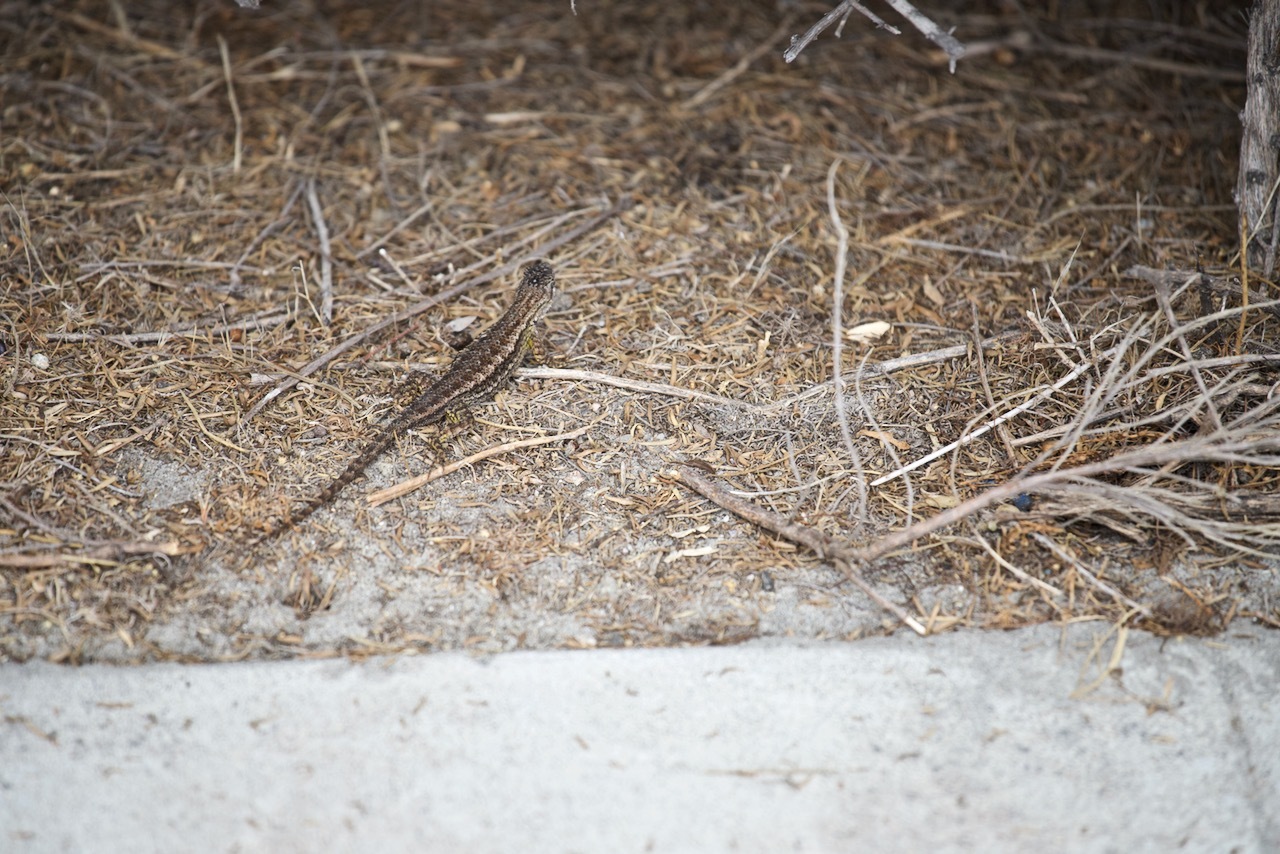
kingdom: Animalia
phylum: Chordata
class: Squamata
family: Phrynosomatidae
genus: Sceloporus
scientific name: Sceloporus occidentalis
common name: Western fence lizard
